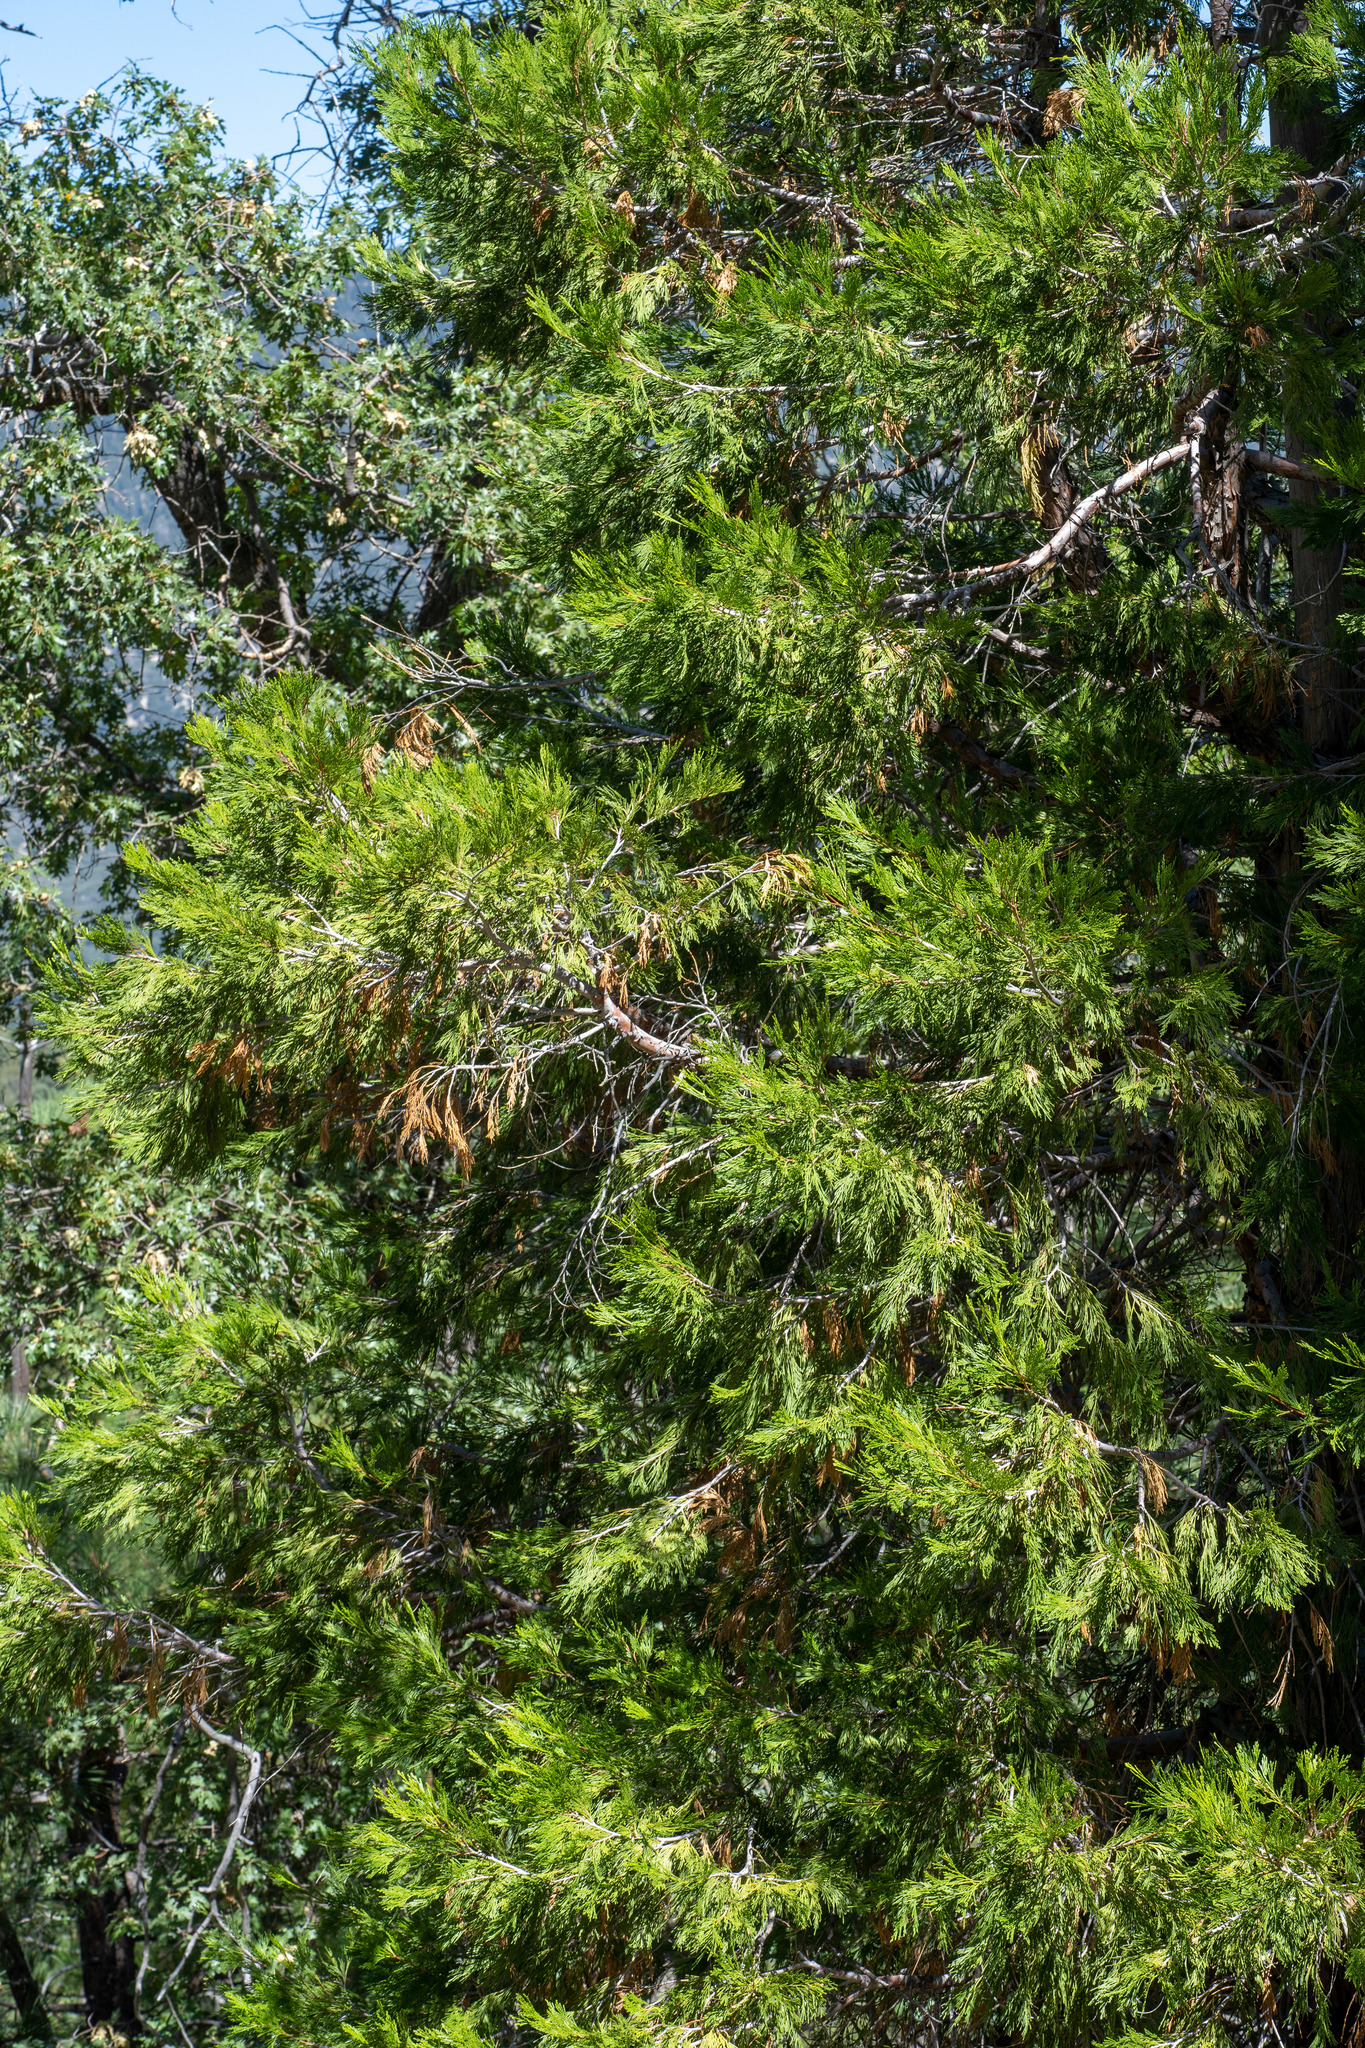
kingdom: Plantae
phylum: Tracheophyta
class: Pinopsida
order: Pinales
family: Cupressaceae
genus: Calocedrus
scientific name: Calocedrus decurrens
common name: Californian incense-cedar
